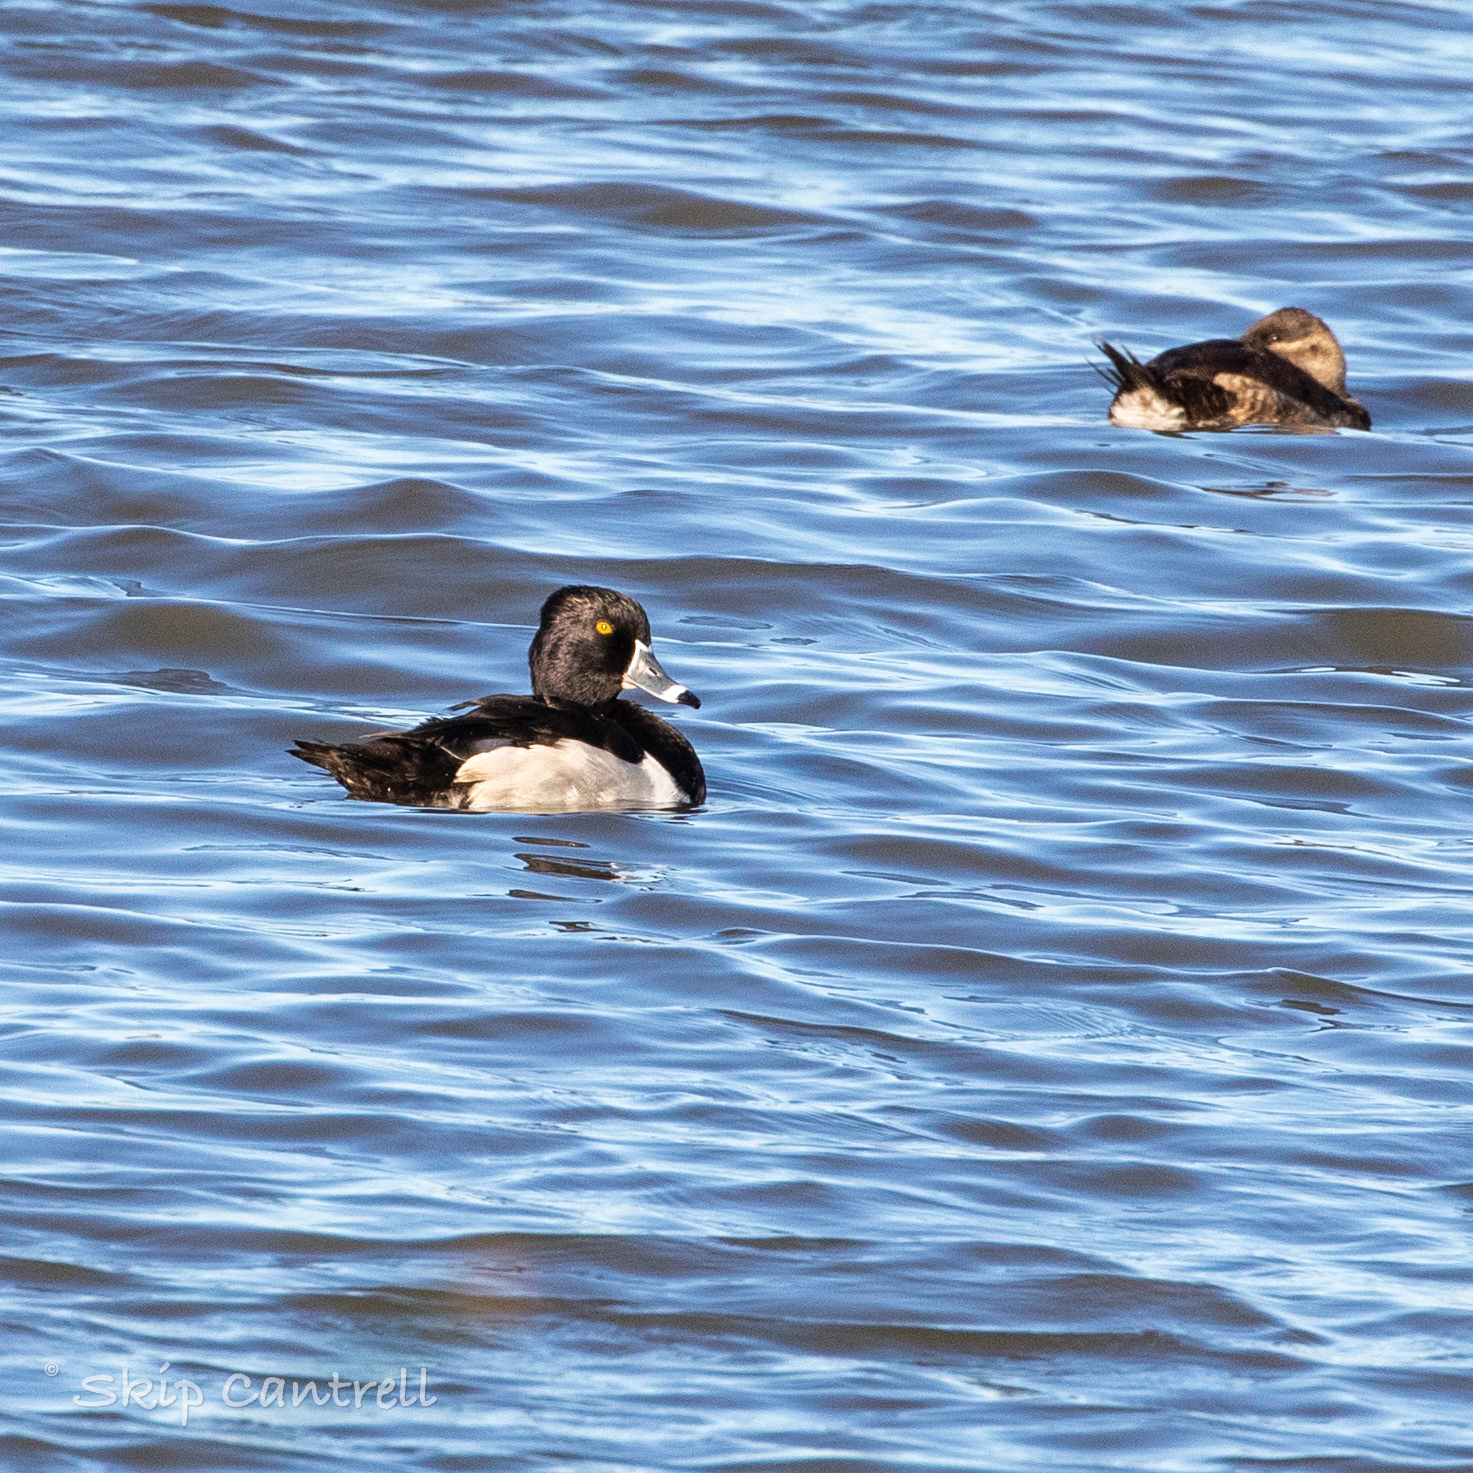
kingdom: Animalia
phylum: Chordata
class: Aves
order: Anseriformes
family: Anatidae
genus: Aythya
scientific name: Aythya collaris
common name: Ring-necked duck
